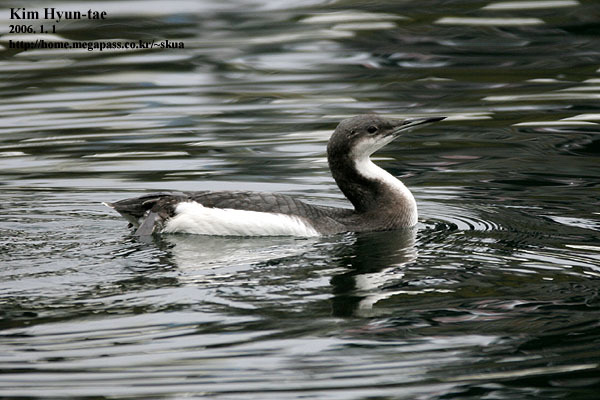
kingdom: Animalia
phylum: Chordata
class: Aves
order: Gaviiformes
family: Gaviidae
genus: Gavia
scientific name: Gavia arctica
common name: Black-throated loon
